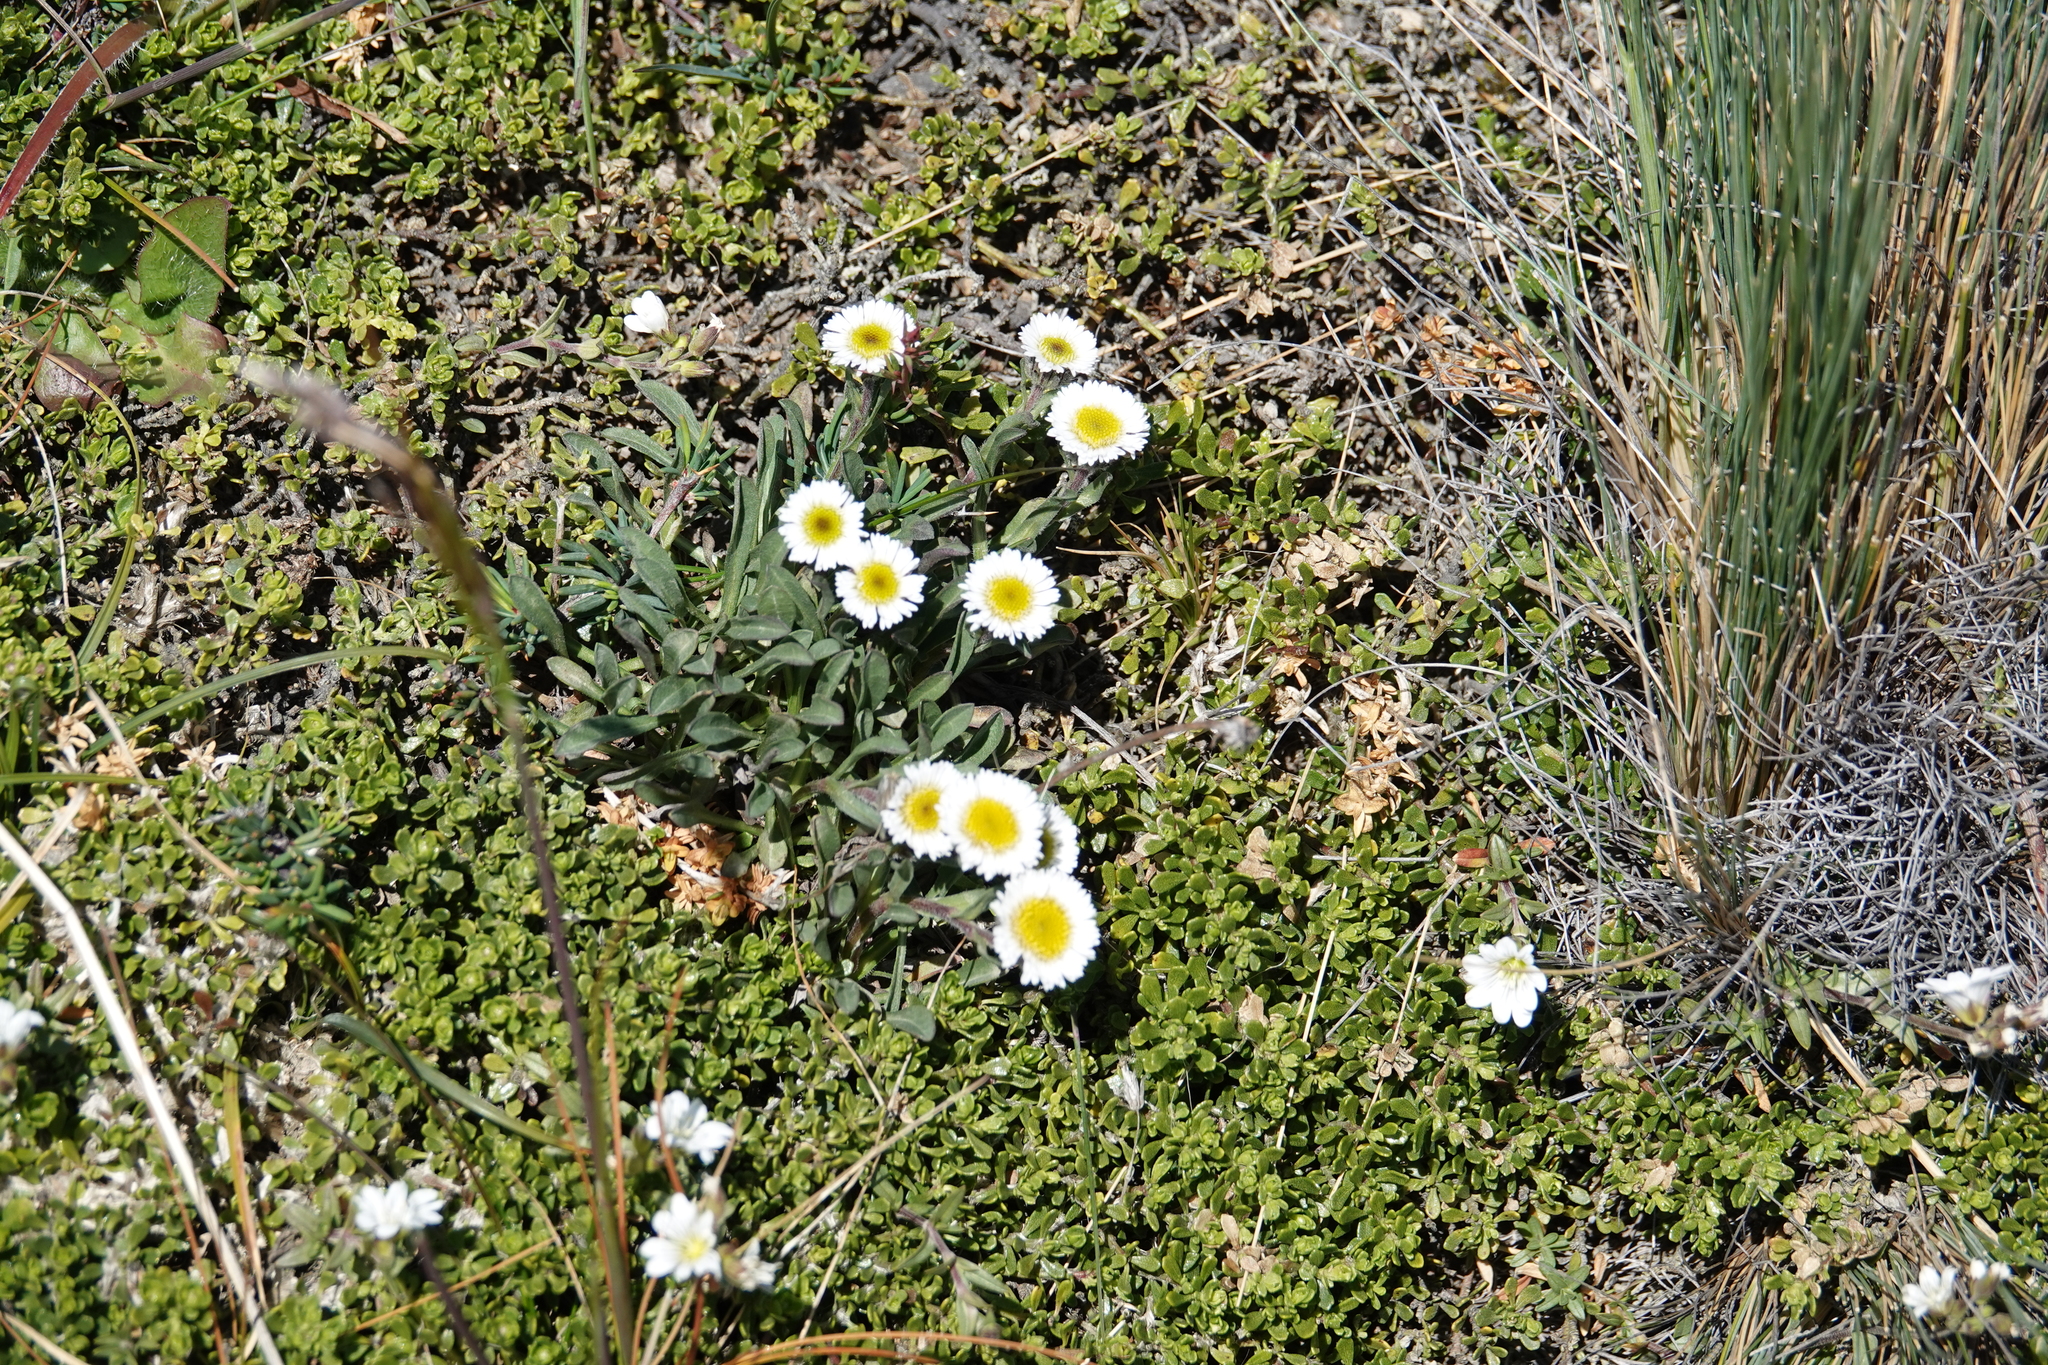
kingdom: Plantae
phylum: Tracheophyta
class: Magnoliopsida
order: Asterales
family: Asteraceae
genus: Erigeron
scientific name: Erigeron leptopetalus
